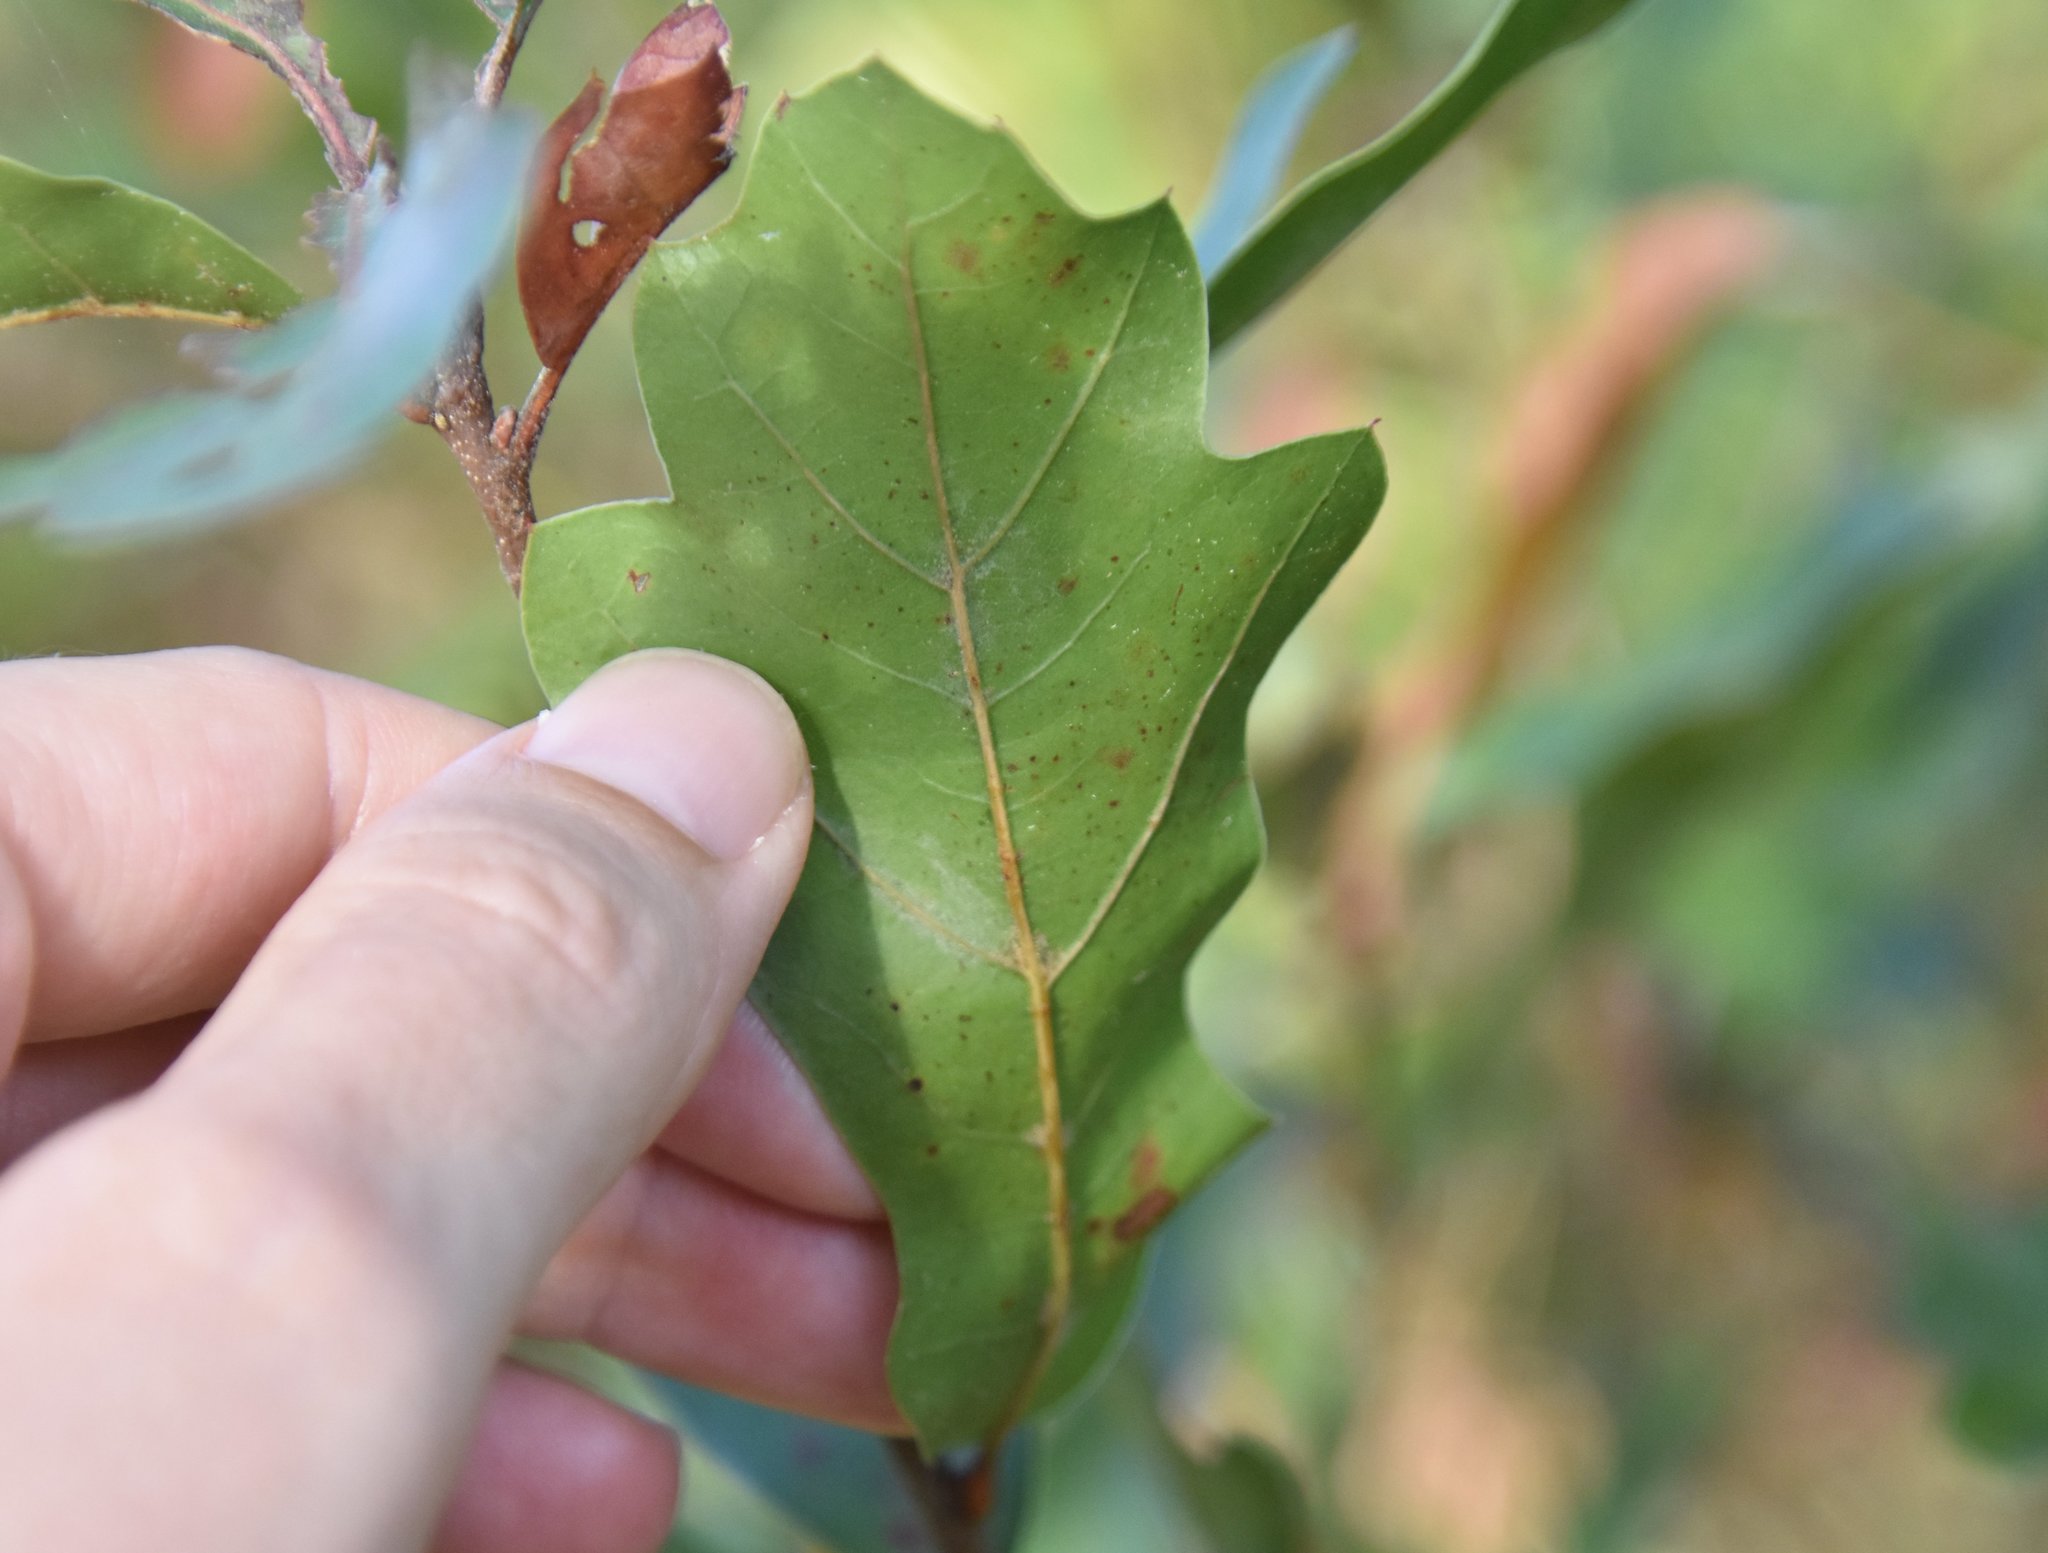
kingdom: Plantae
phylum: Tracheophyta
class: Magnoliopsida
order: Fagales
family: Fagaceae
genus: Quercus
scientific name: Quercus nigra
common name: Water oak
